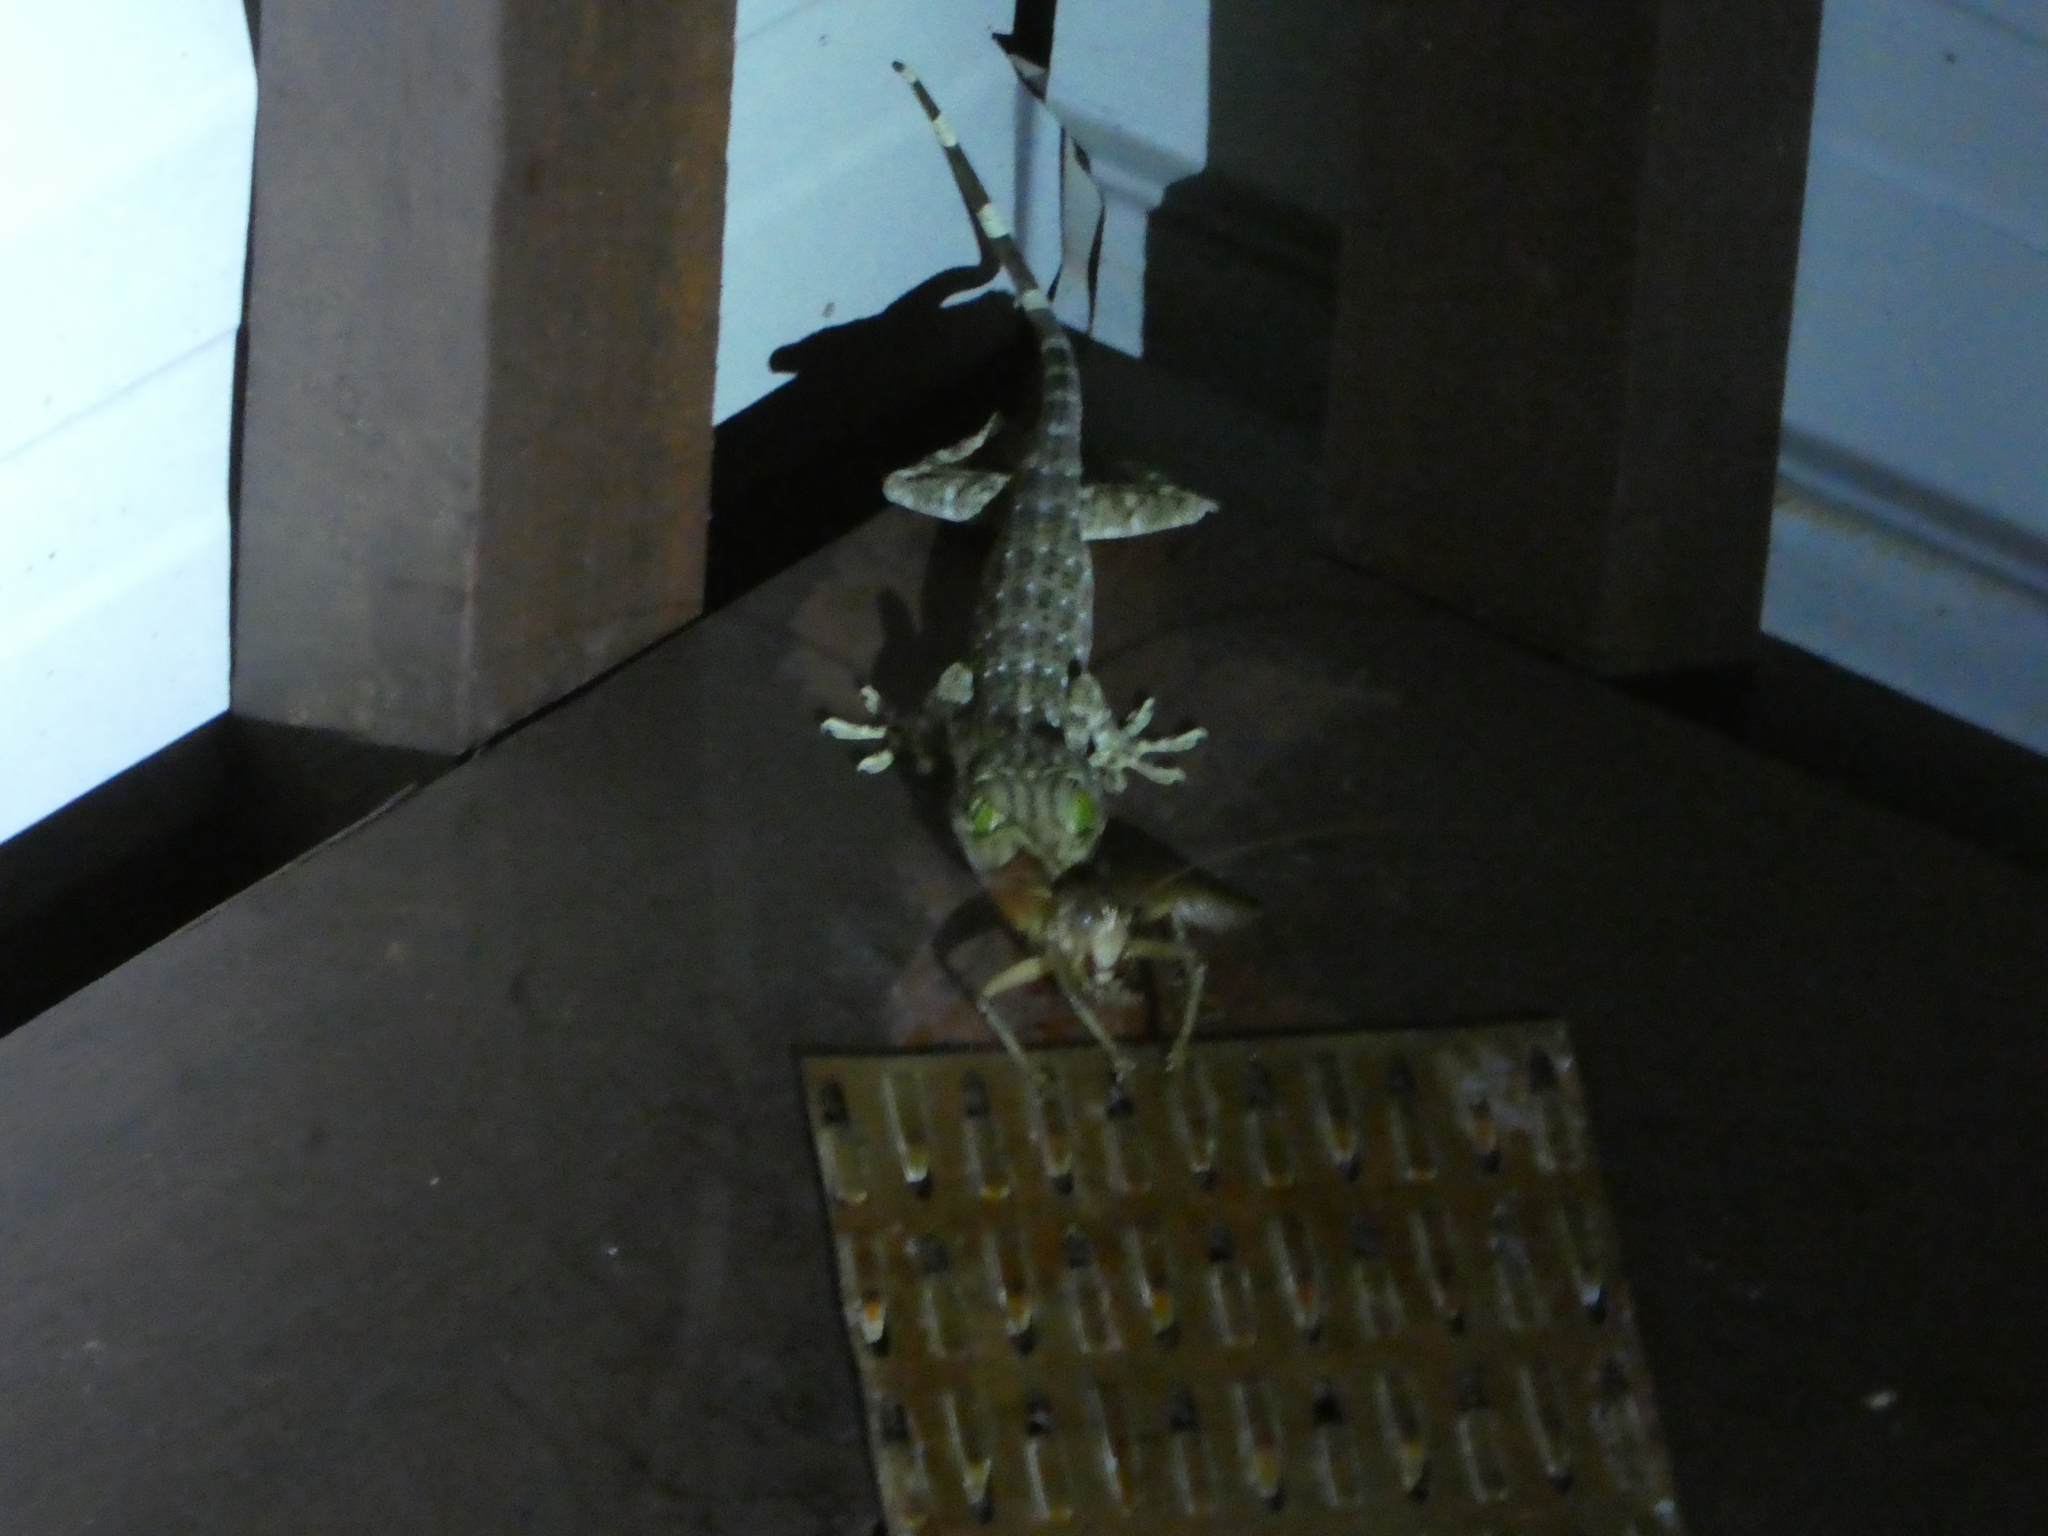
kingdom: Animalia
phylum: Chordata
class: Squamata
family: Gekkonidae
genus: Gekko
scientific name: Gekko albofasciolatus
